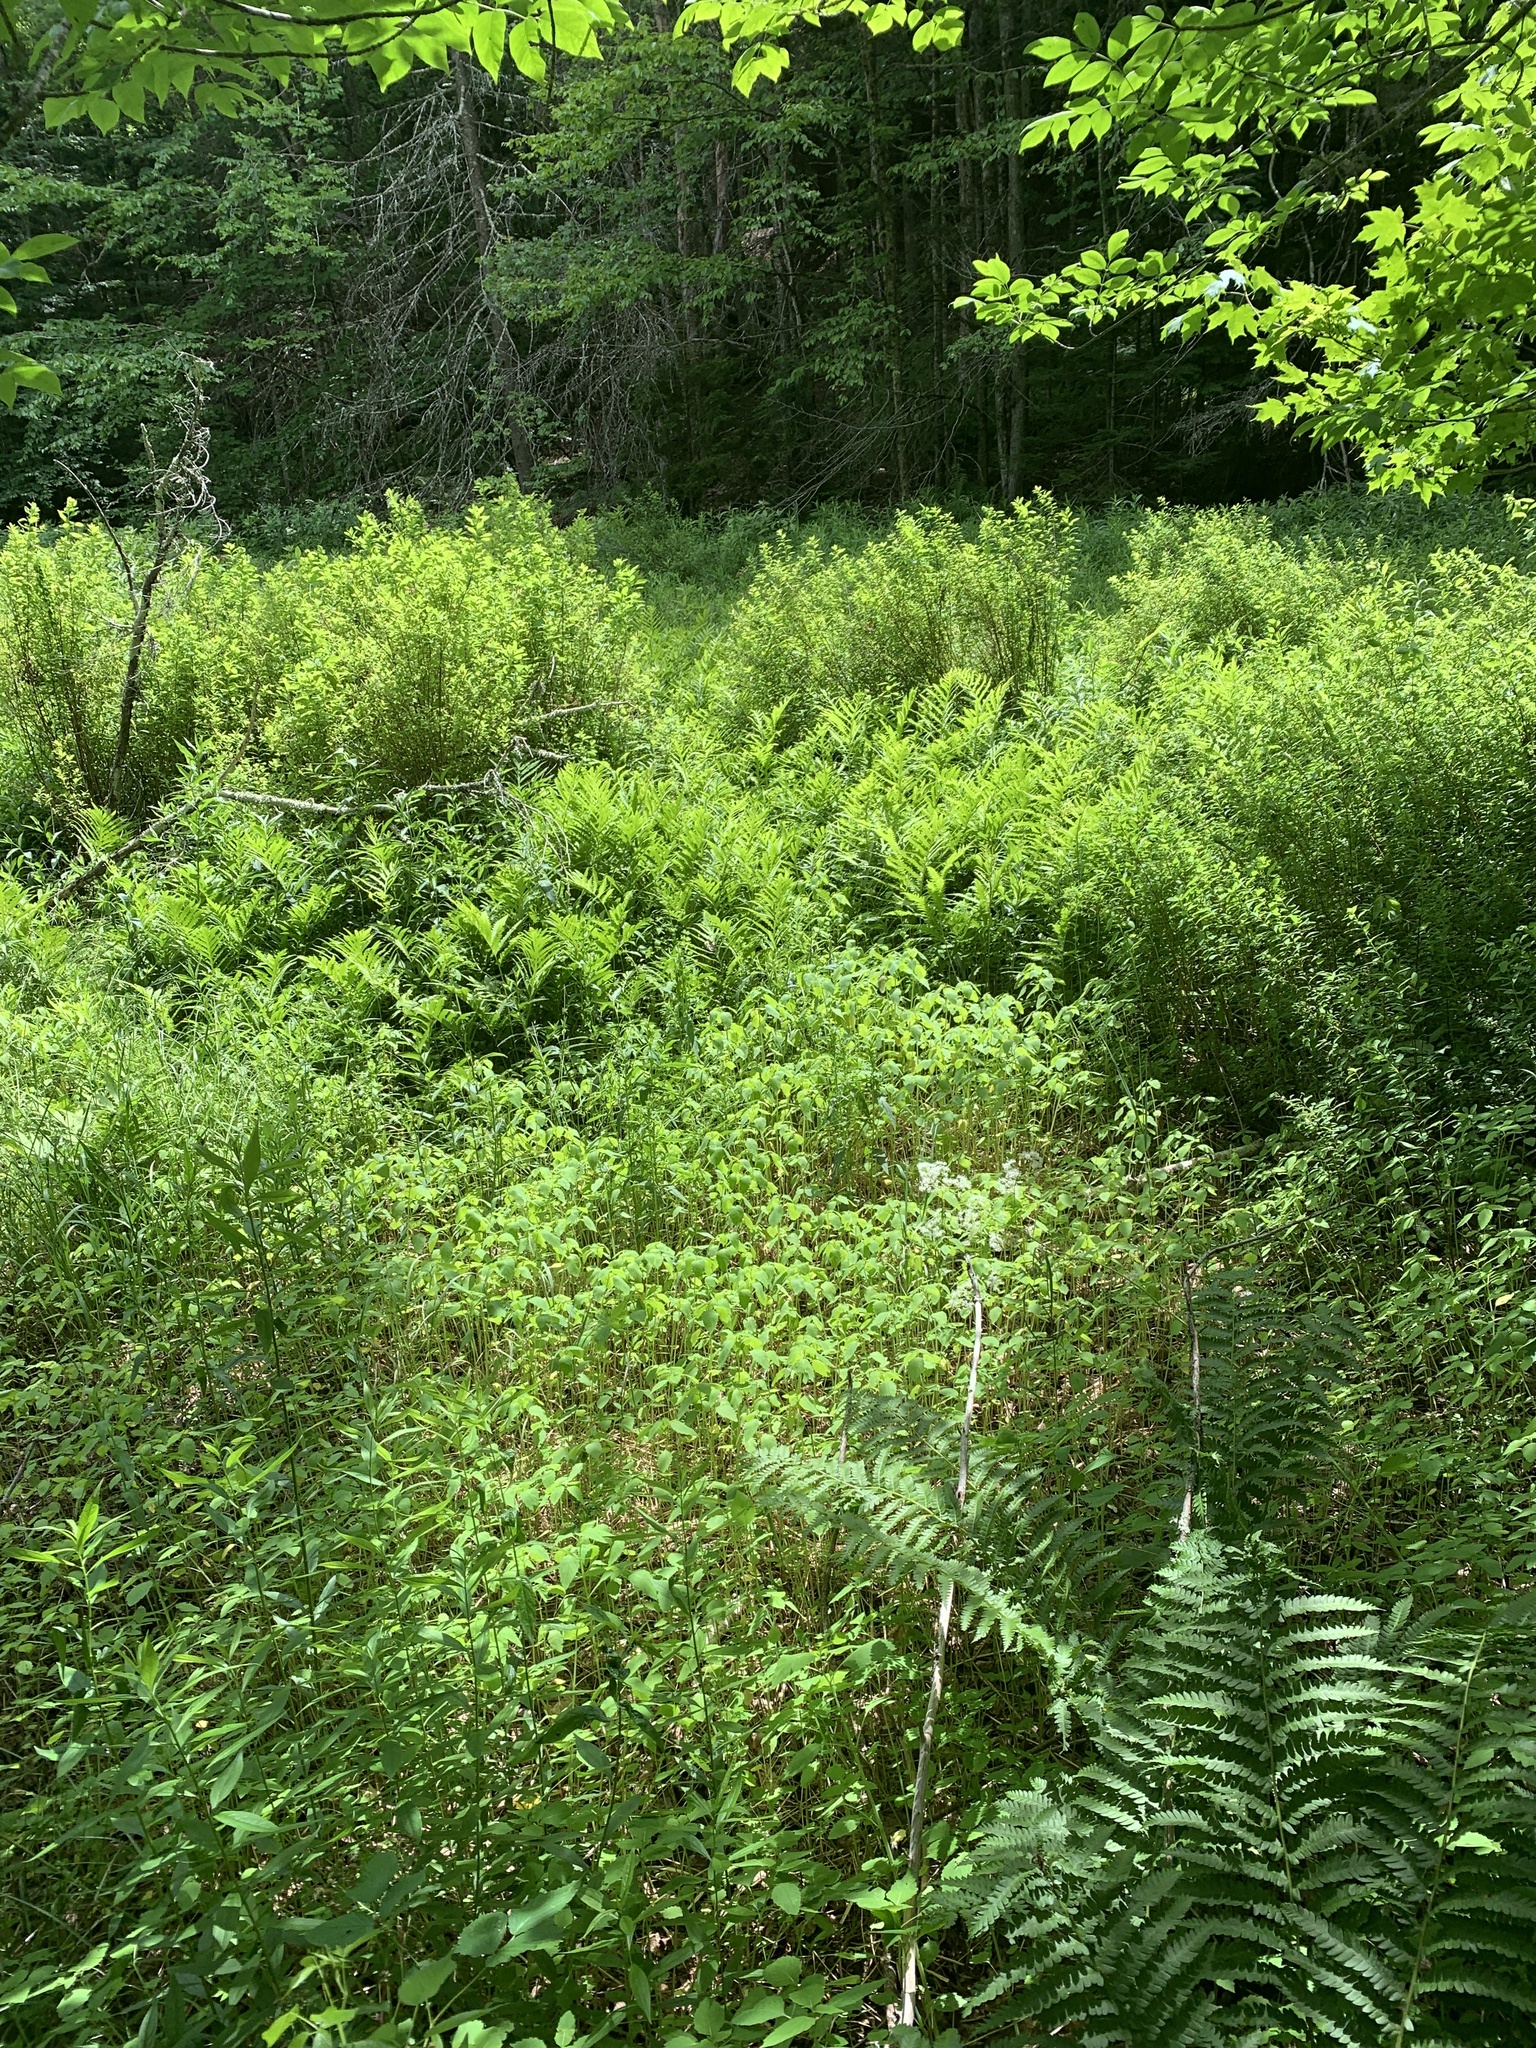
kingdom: Plantae
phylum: Tracheophyta
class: Polypodiopsida
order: Polypodiales
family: Onocleaceae
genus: Onoclea
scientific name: Onoclea sensibilis
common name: Sensitive fern
